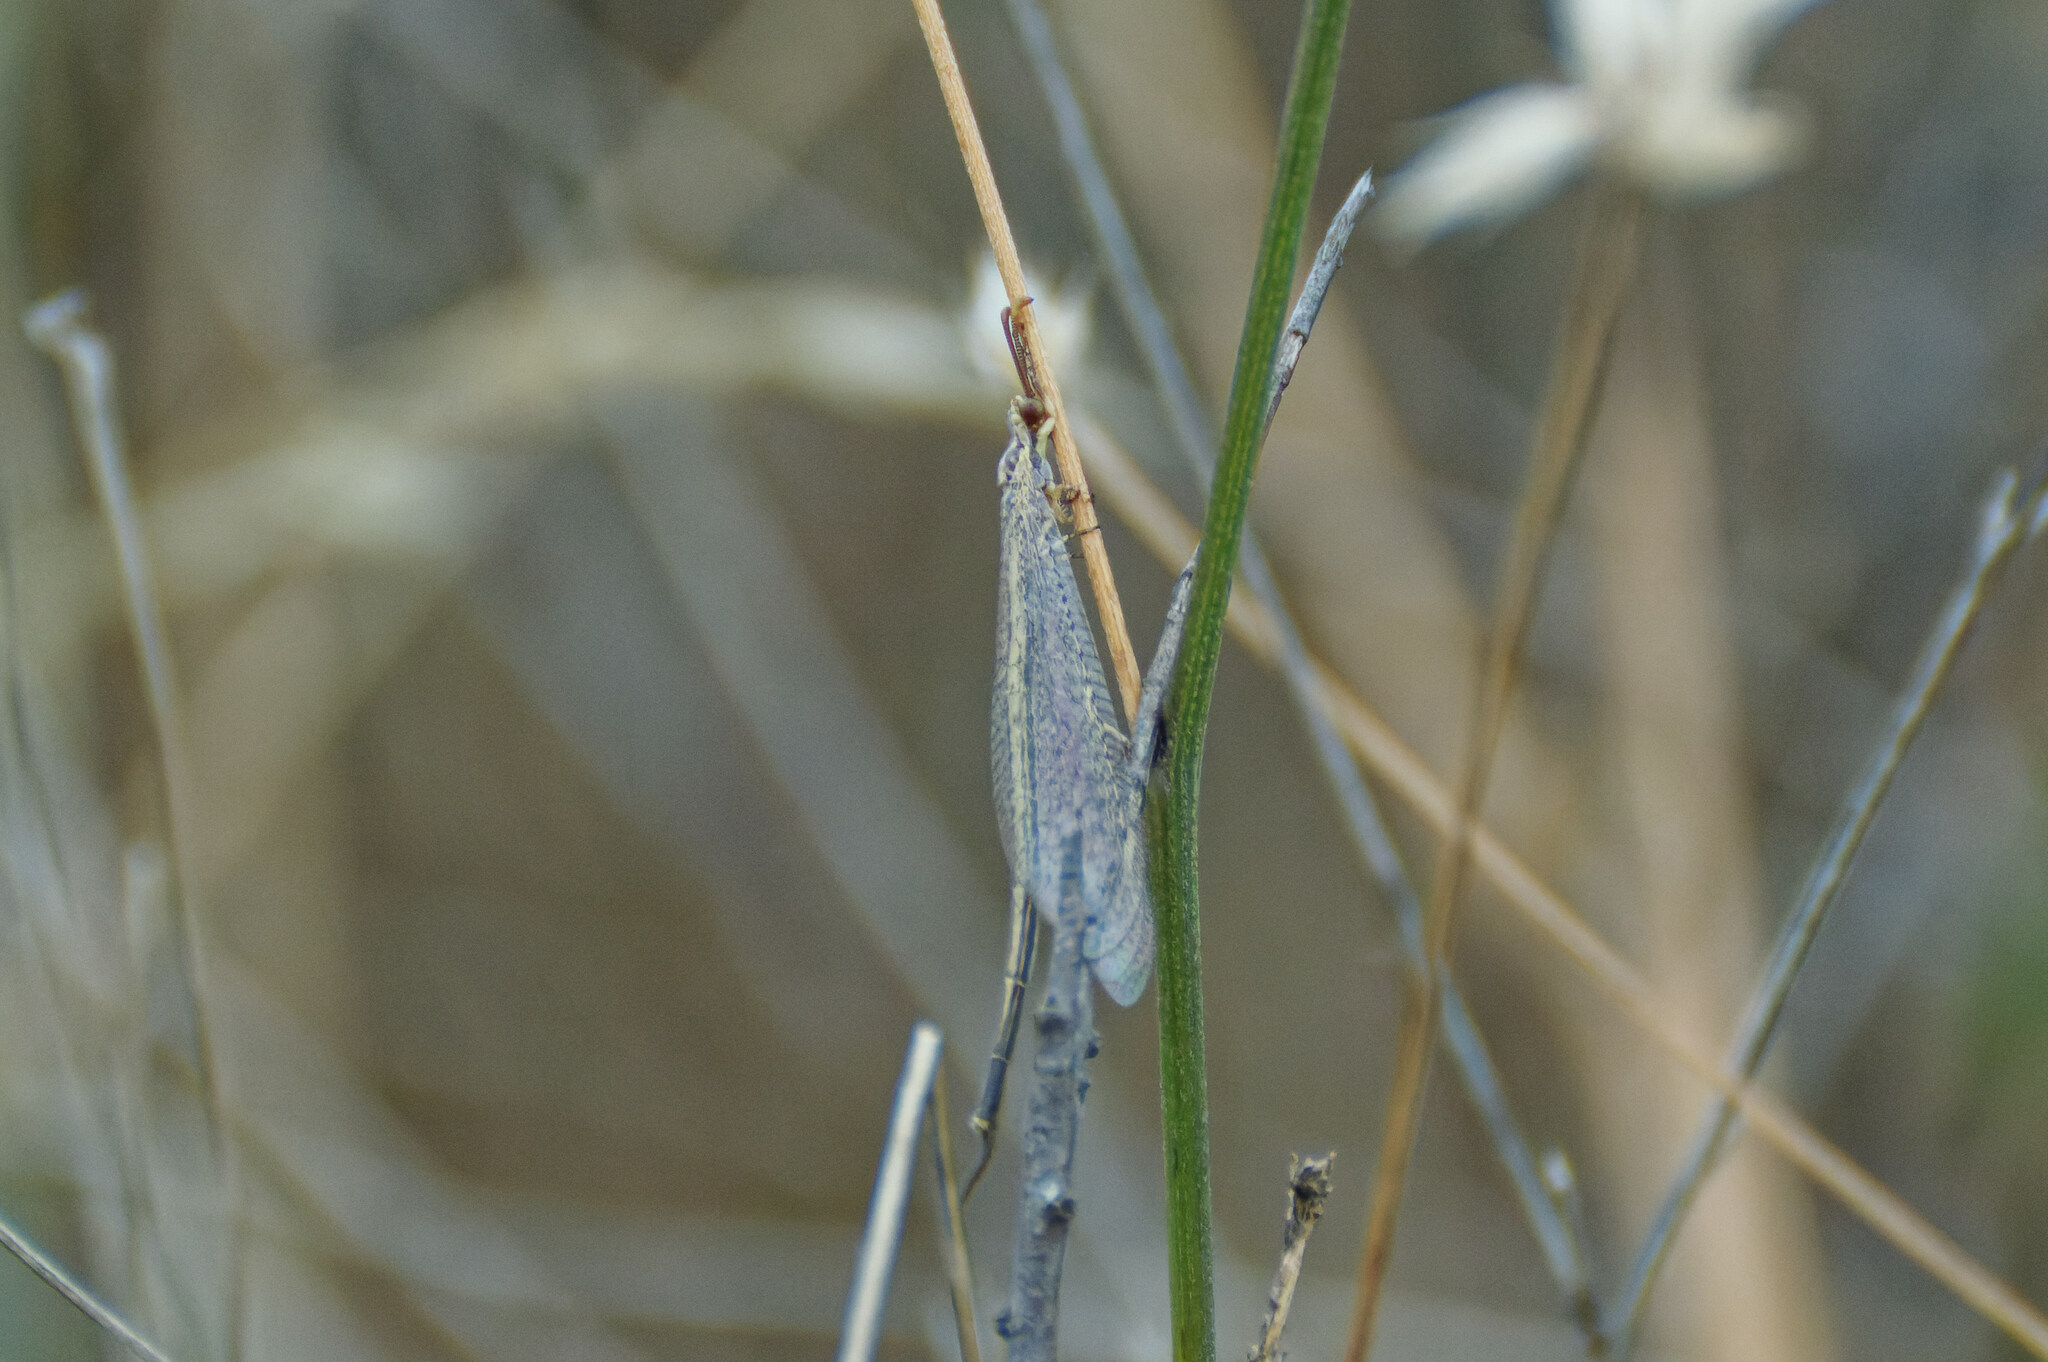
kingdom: Animalia
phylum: Arthropoda
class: Insecta
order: Neuroptera
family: Myrmeleontidae
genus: Macronemurus
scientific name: Macronemurus appendiculatus
